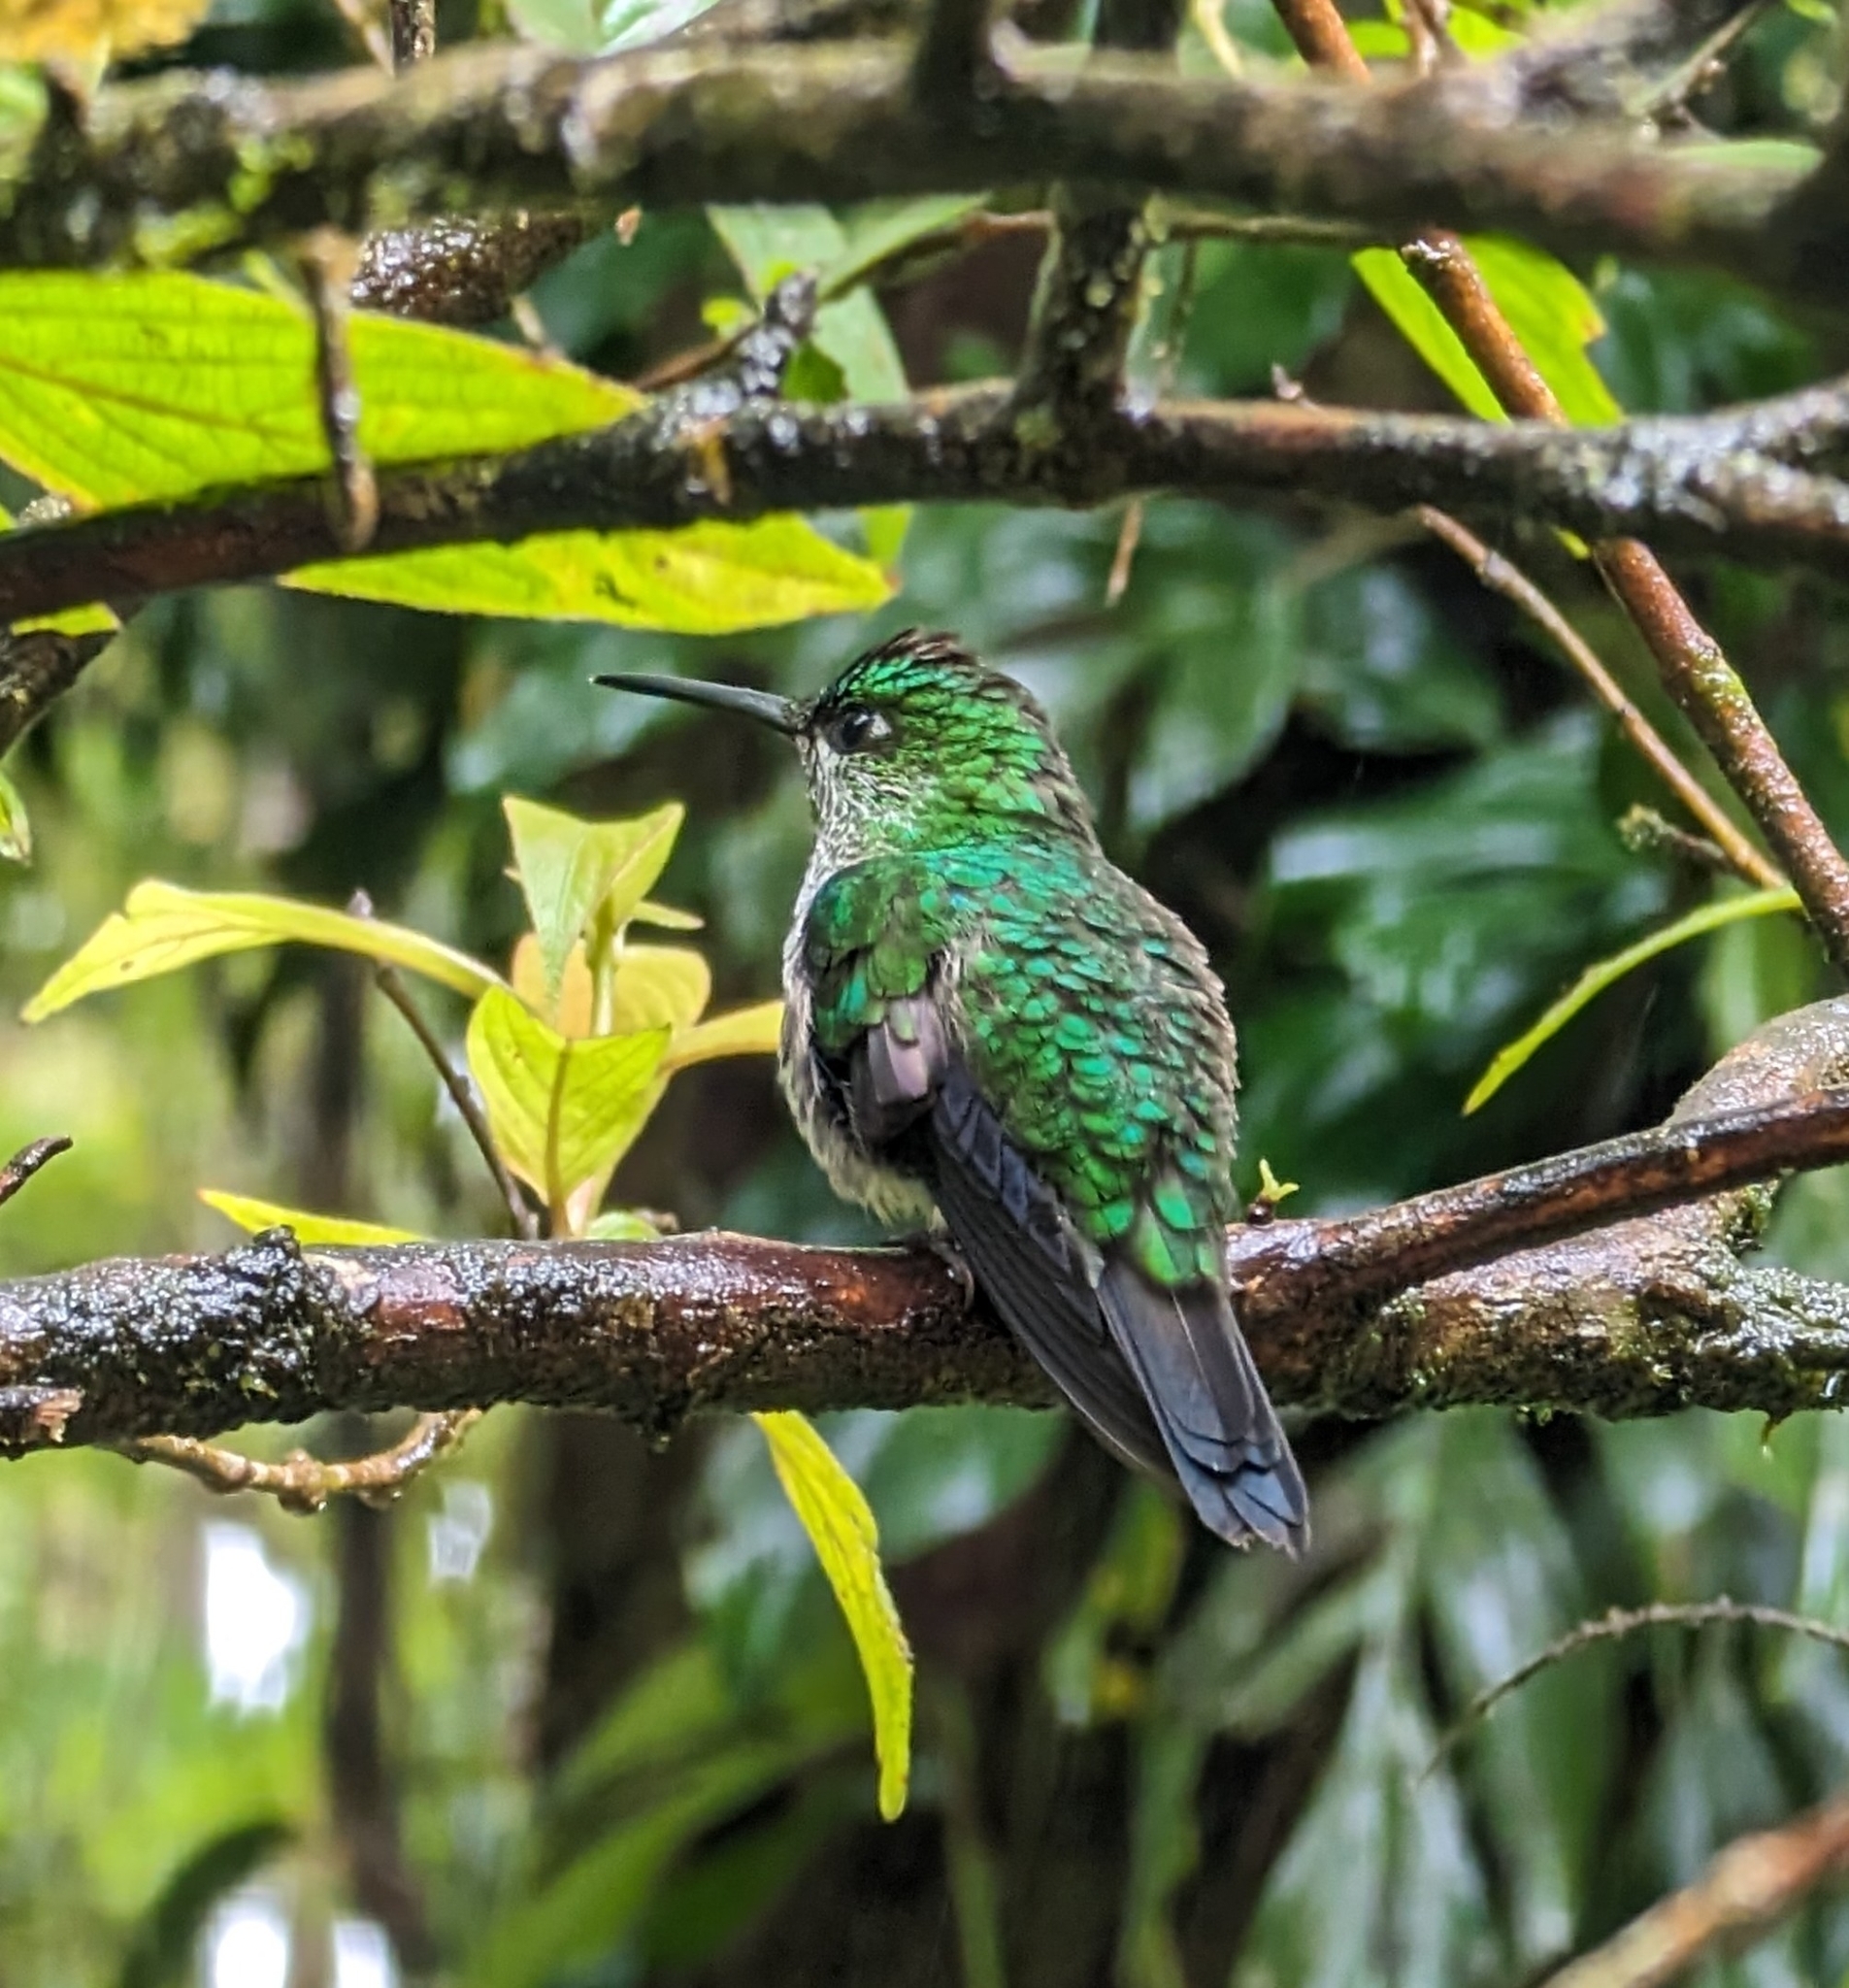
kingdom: Animalia
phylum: Chordata
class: Aves
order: Apodiformes
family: Trochilidae
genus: Heliodoxa
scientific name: Heliodoxa jacula
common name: Green-crowned brilliant
